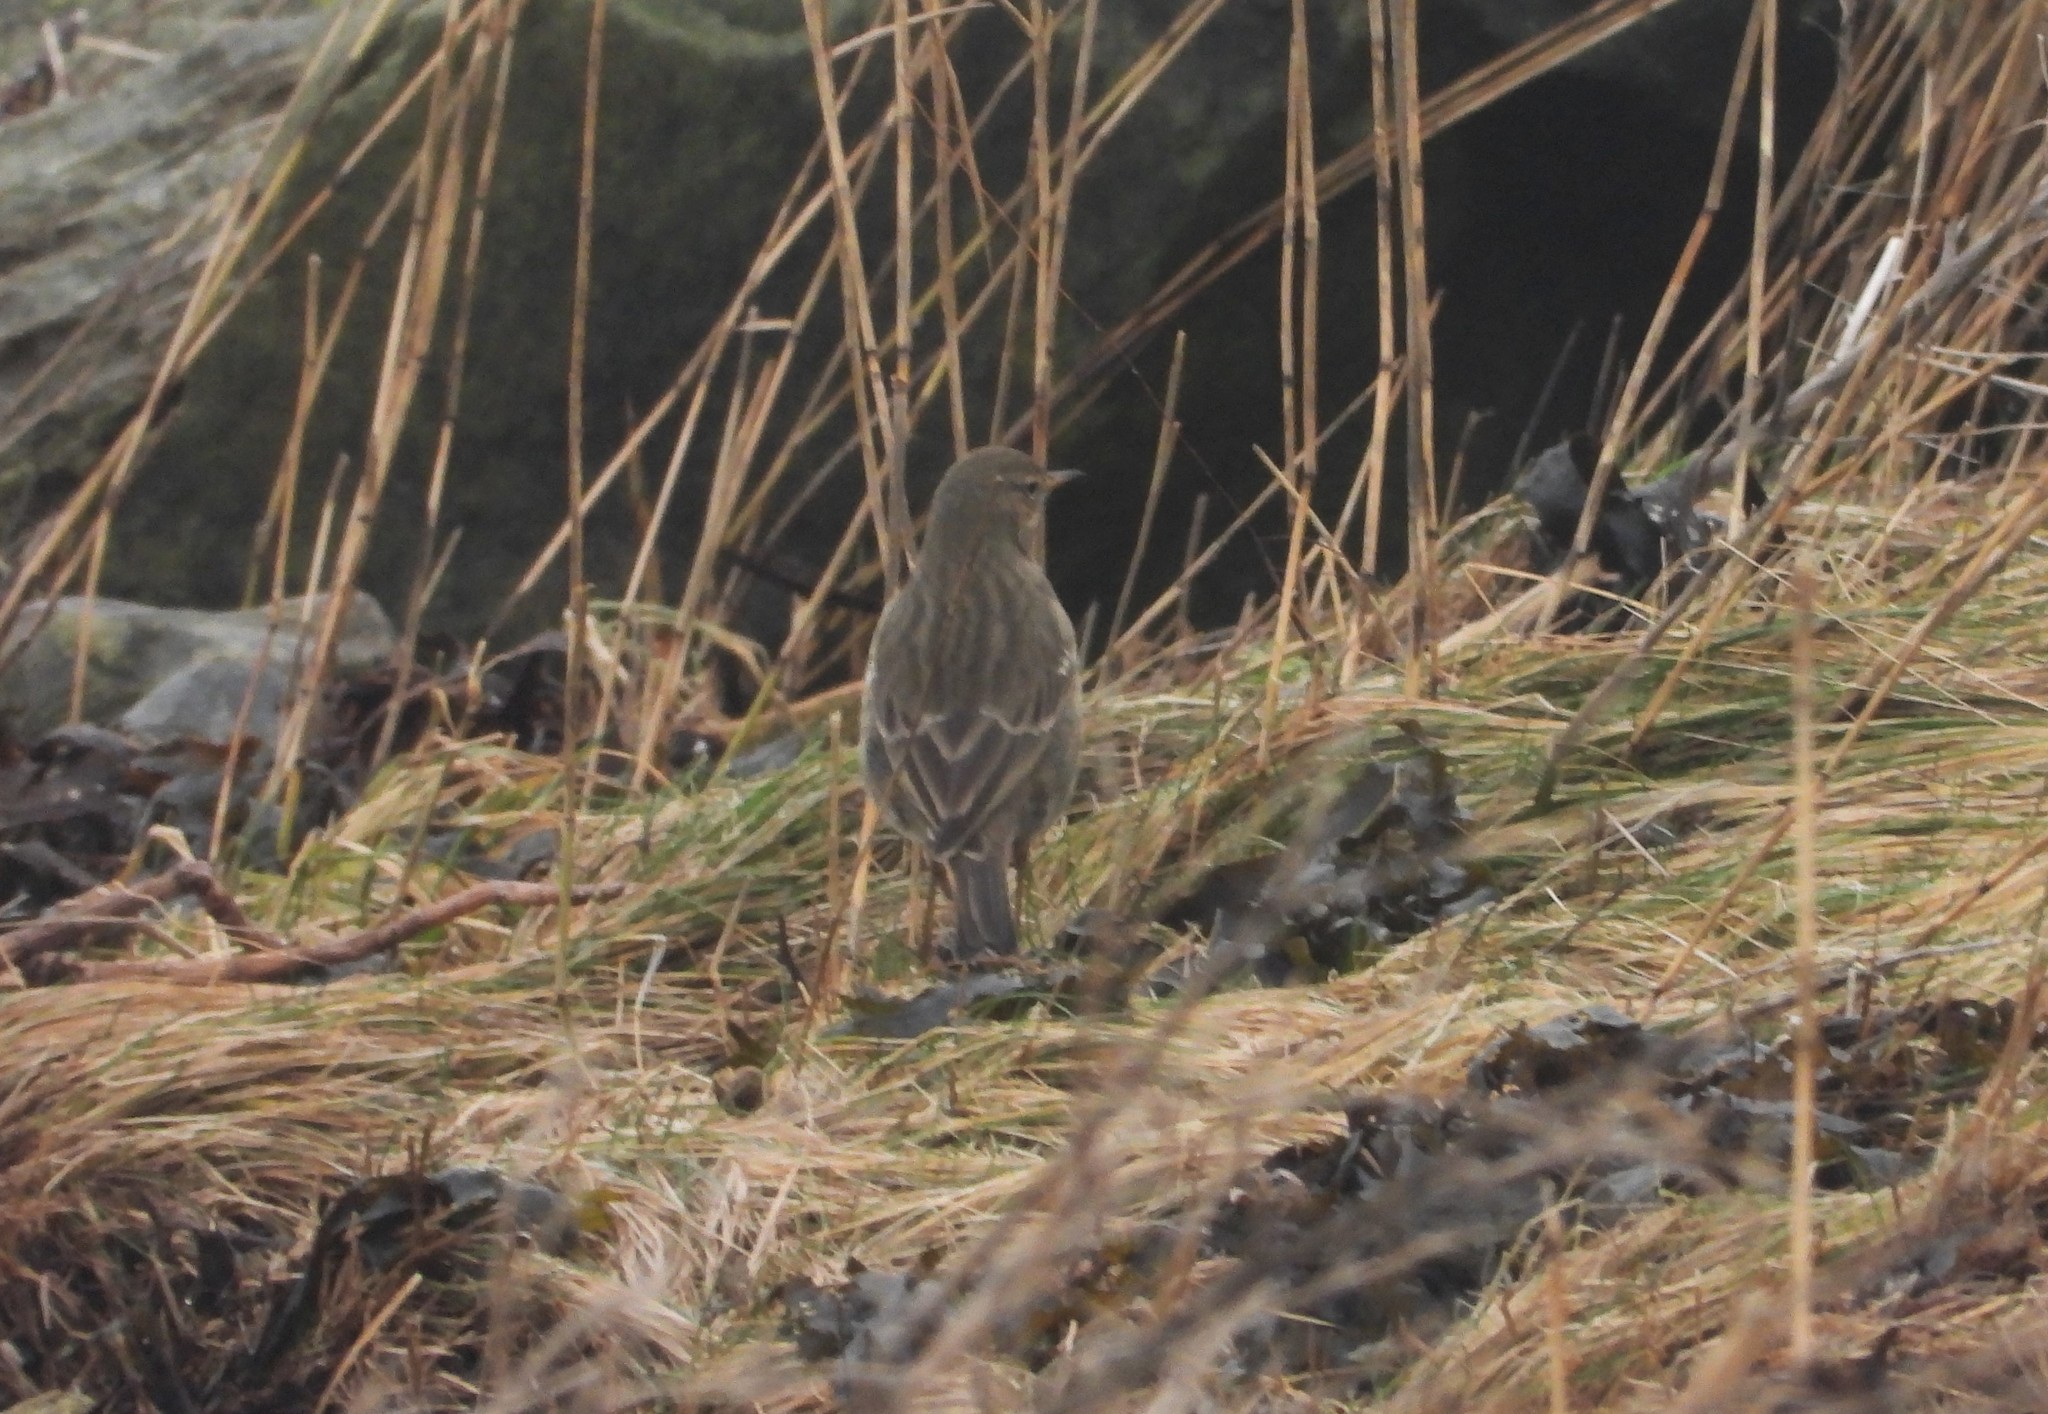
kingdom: Animalia
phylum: Chordata
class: Aves
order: Passeriformes
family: Motacillidae
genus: Anthus
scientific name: Anthus petrosus
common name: Eurasian rock pipit
